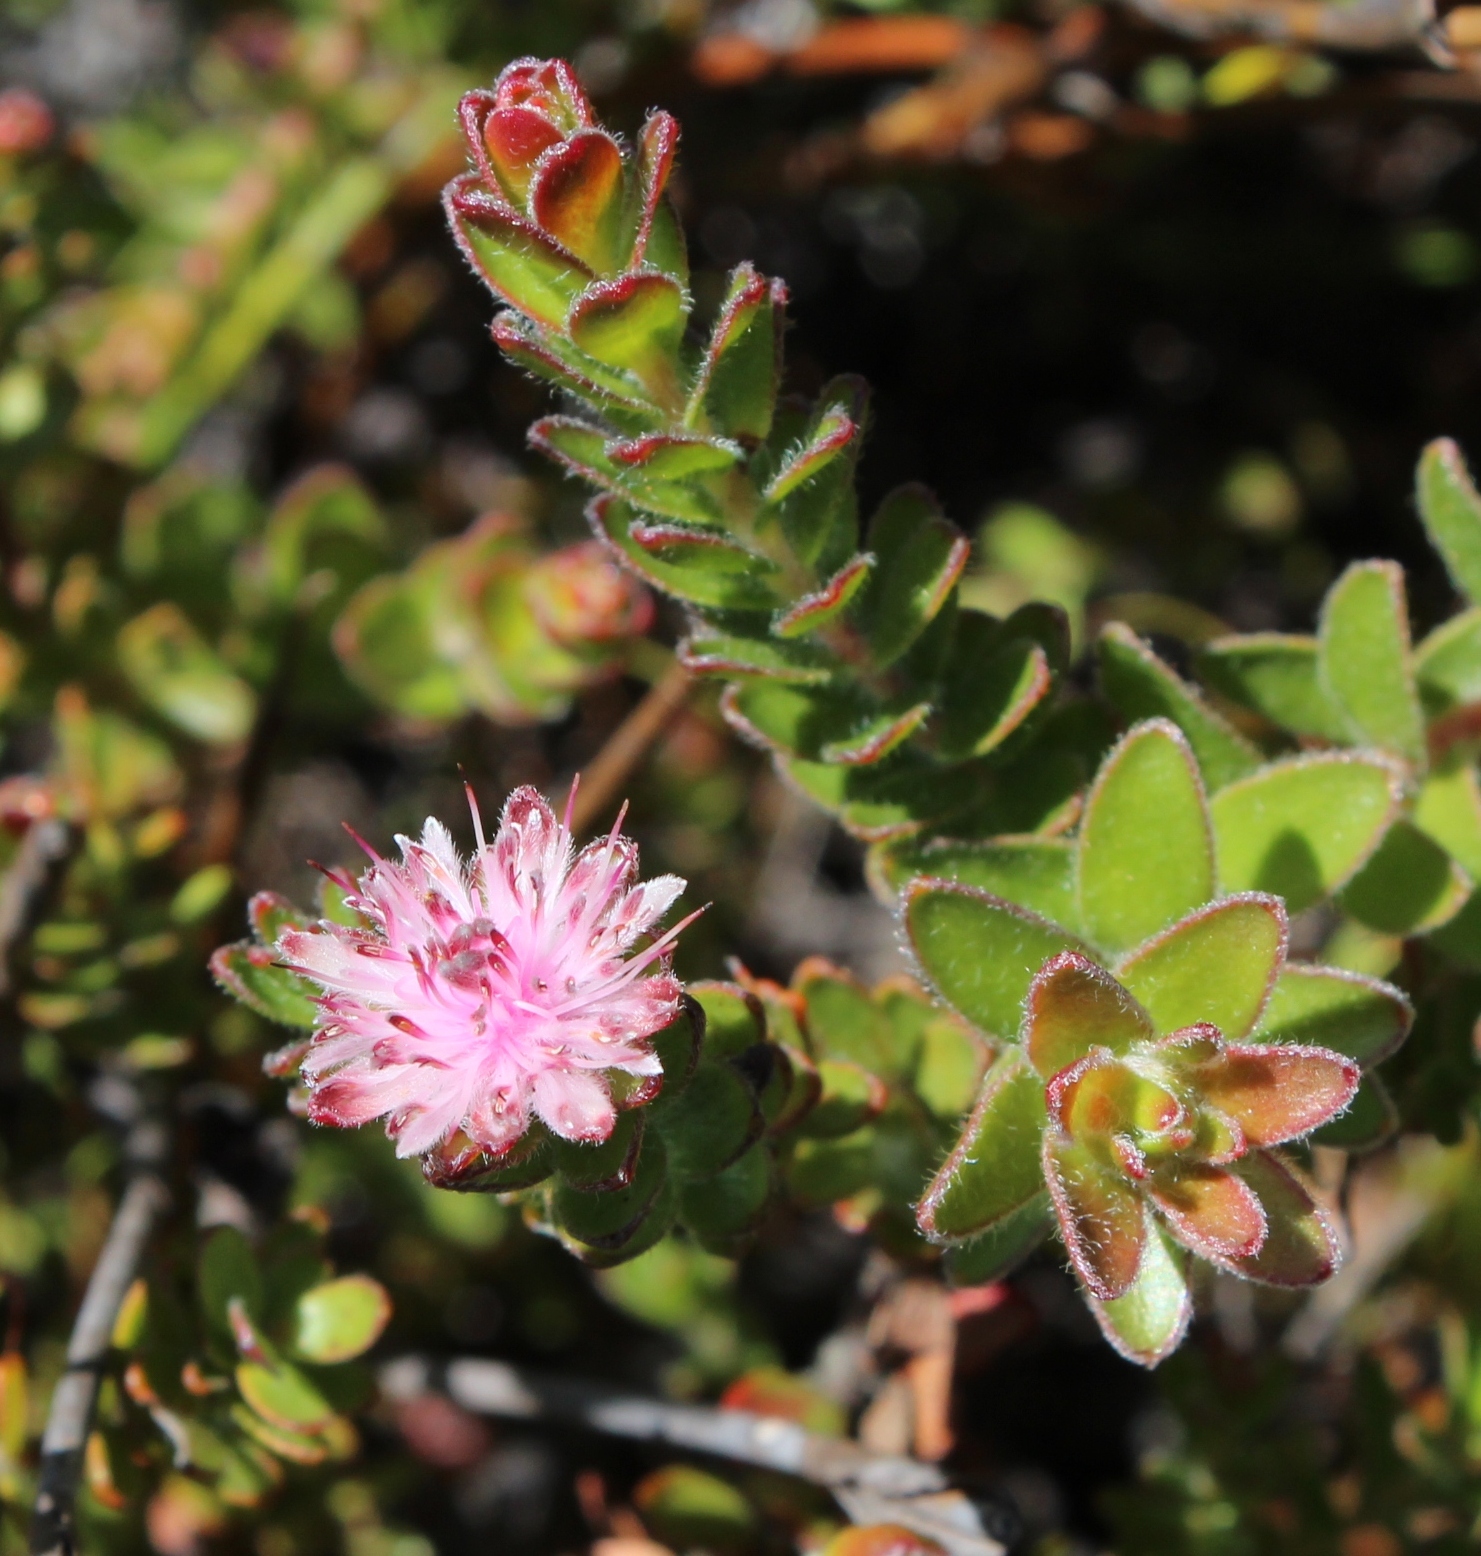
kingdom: Plantae
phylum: Tracheophyta
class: Magnoliopsida
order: Proteales
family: Proteaceae
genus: Diastella
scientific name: Diastella divaricata
